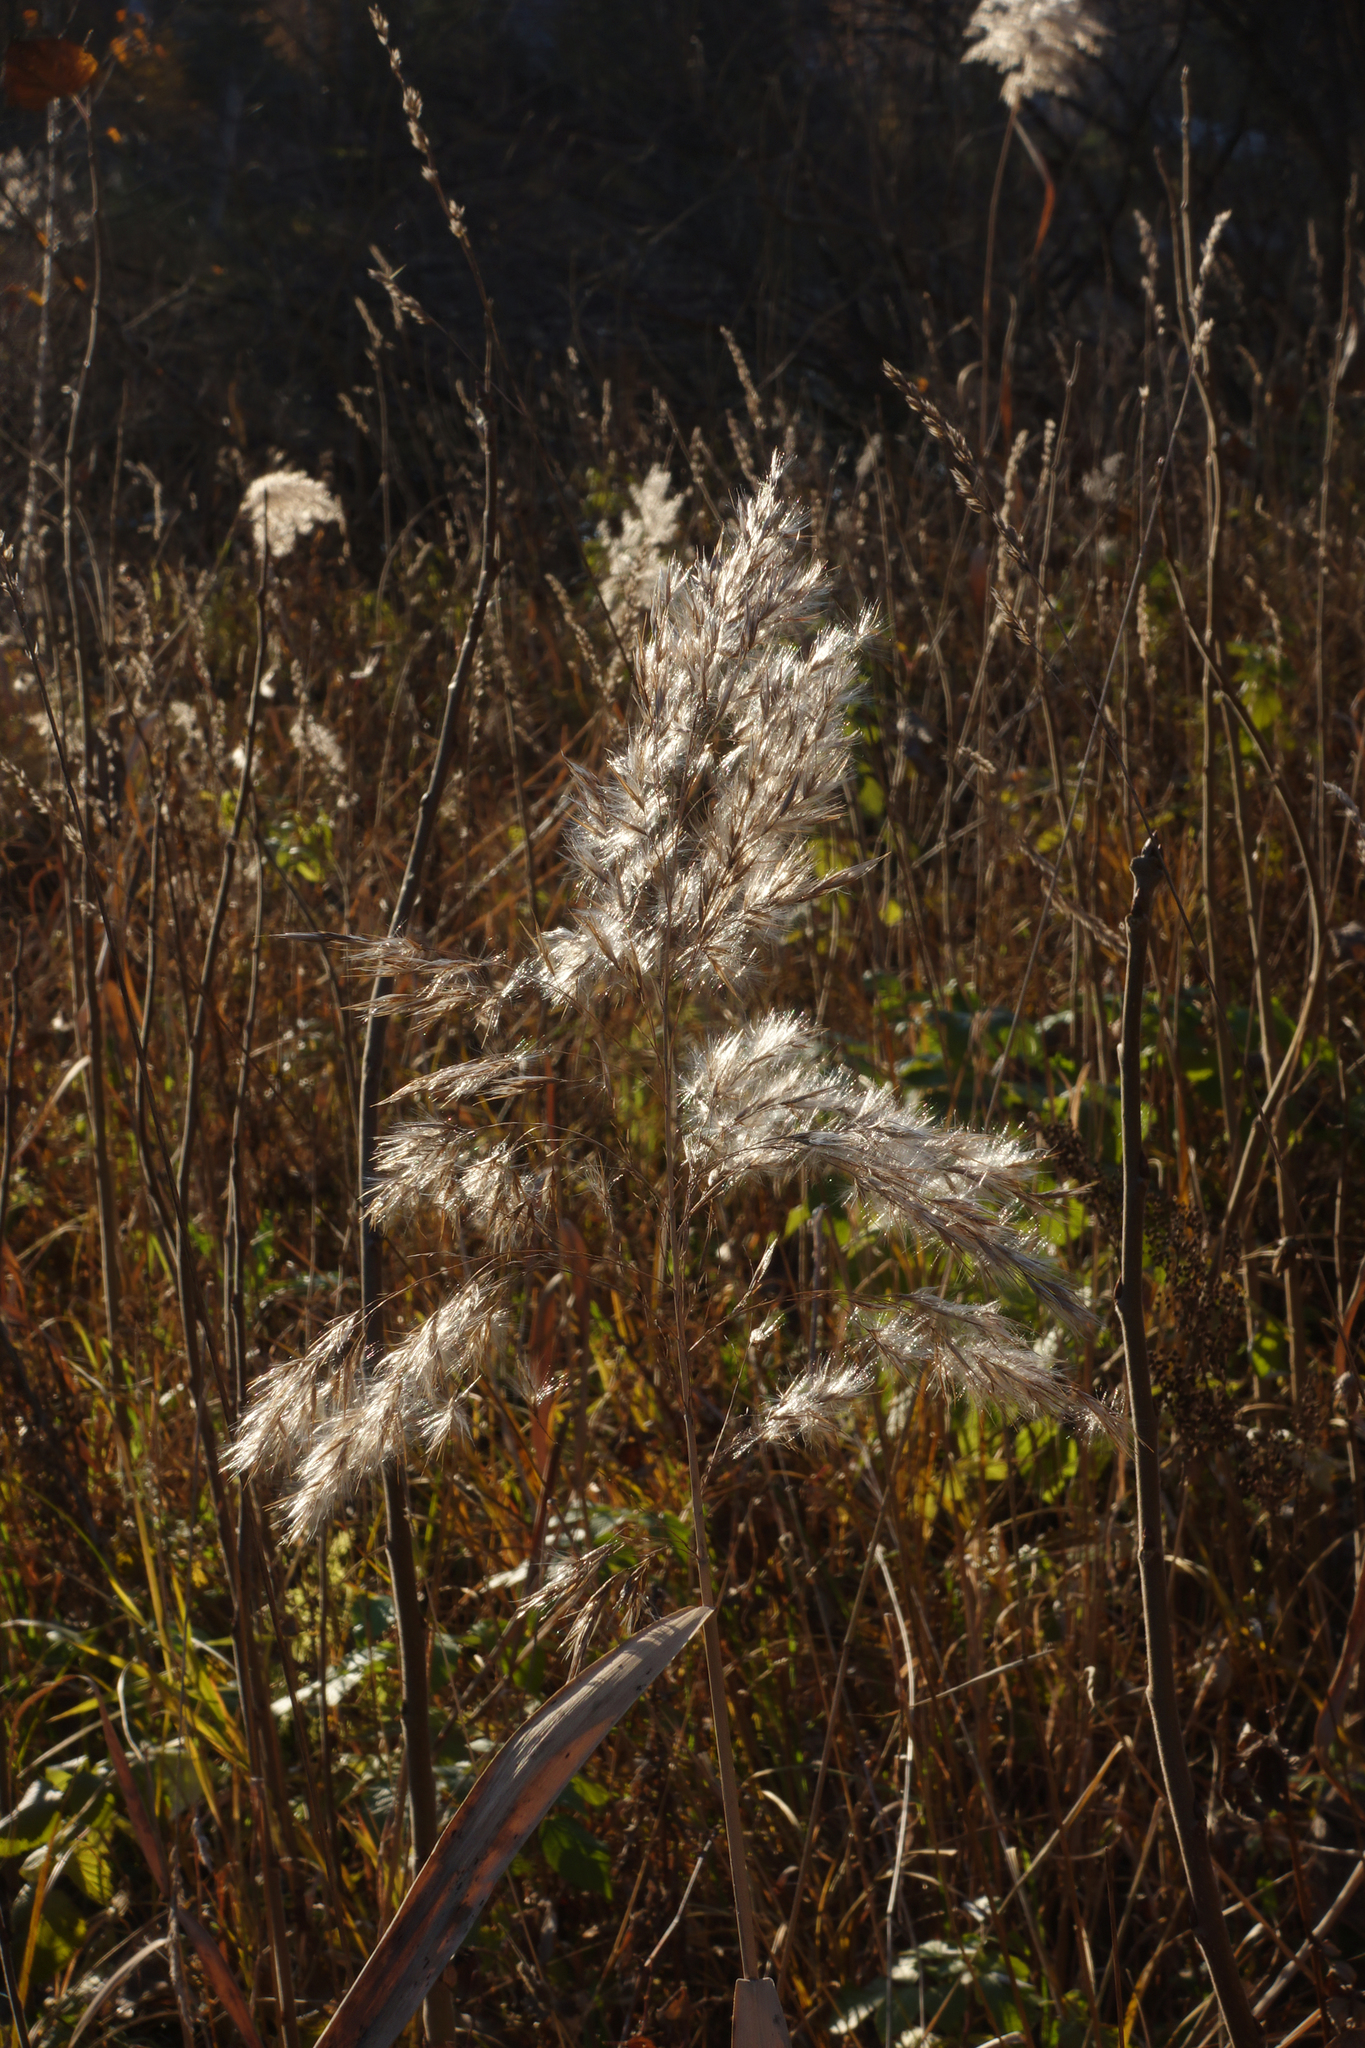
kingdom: Plantae
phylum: Tracheophyta
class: Liliopsida
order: Poales
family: Poaceae
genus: Phragmites
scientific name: Phragmites australis
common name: Common reed
